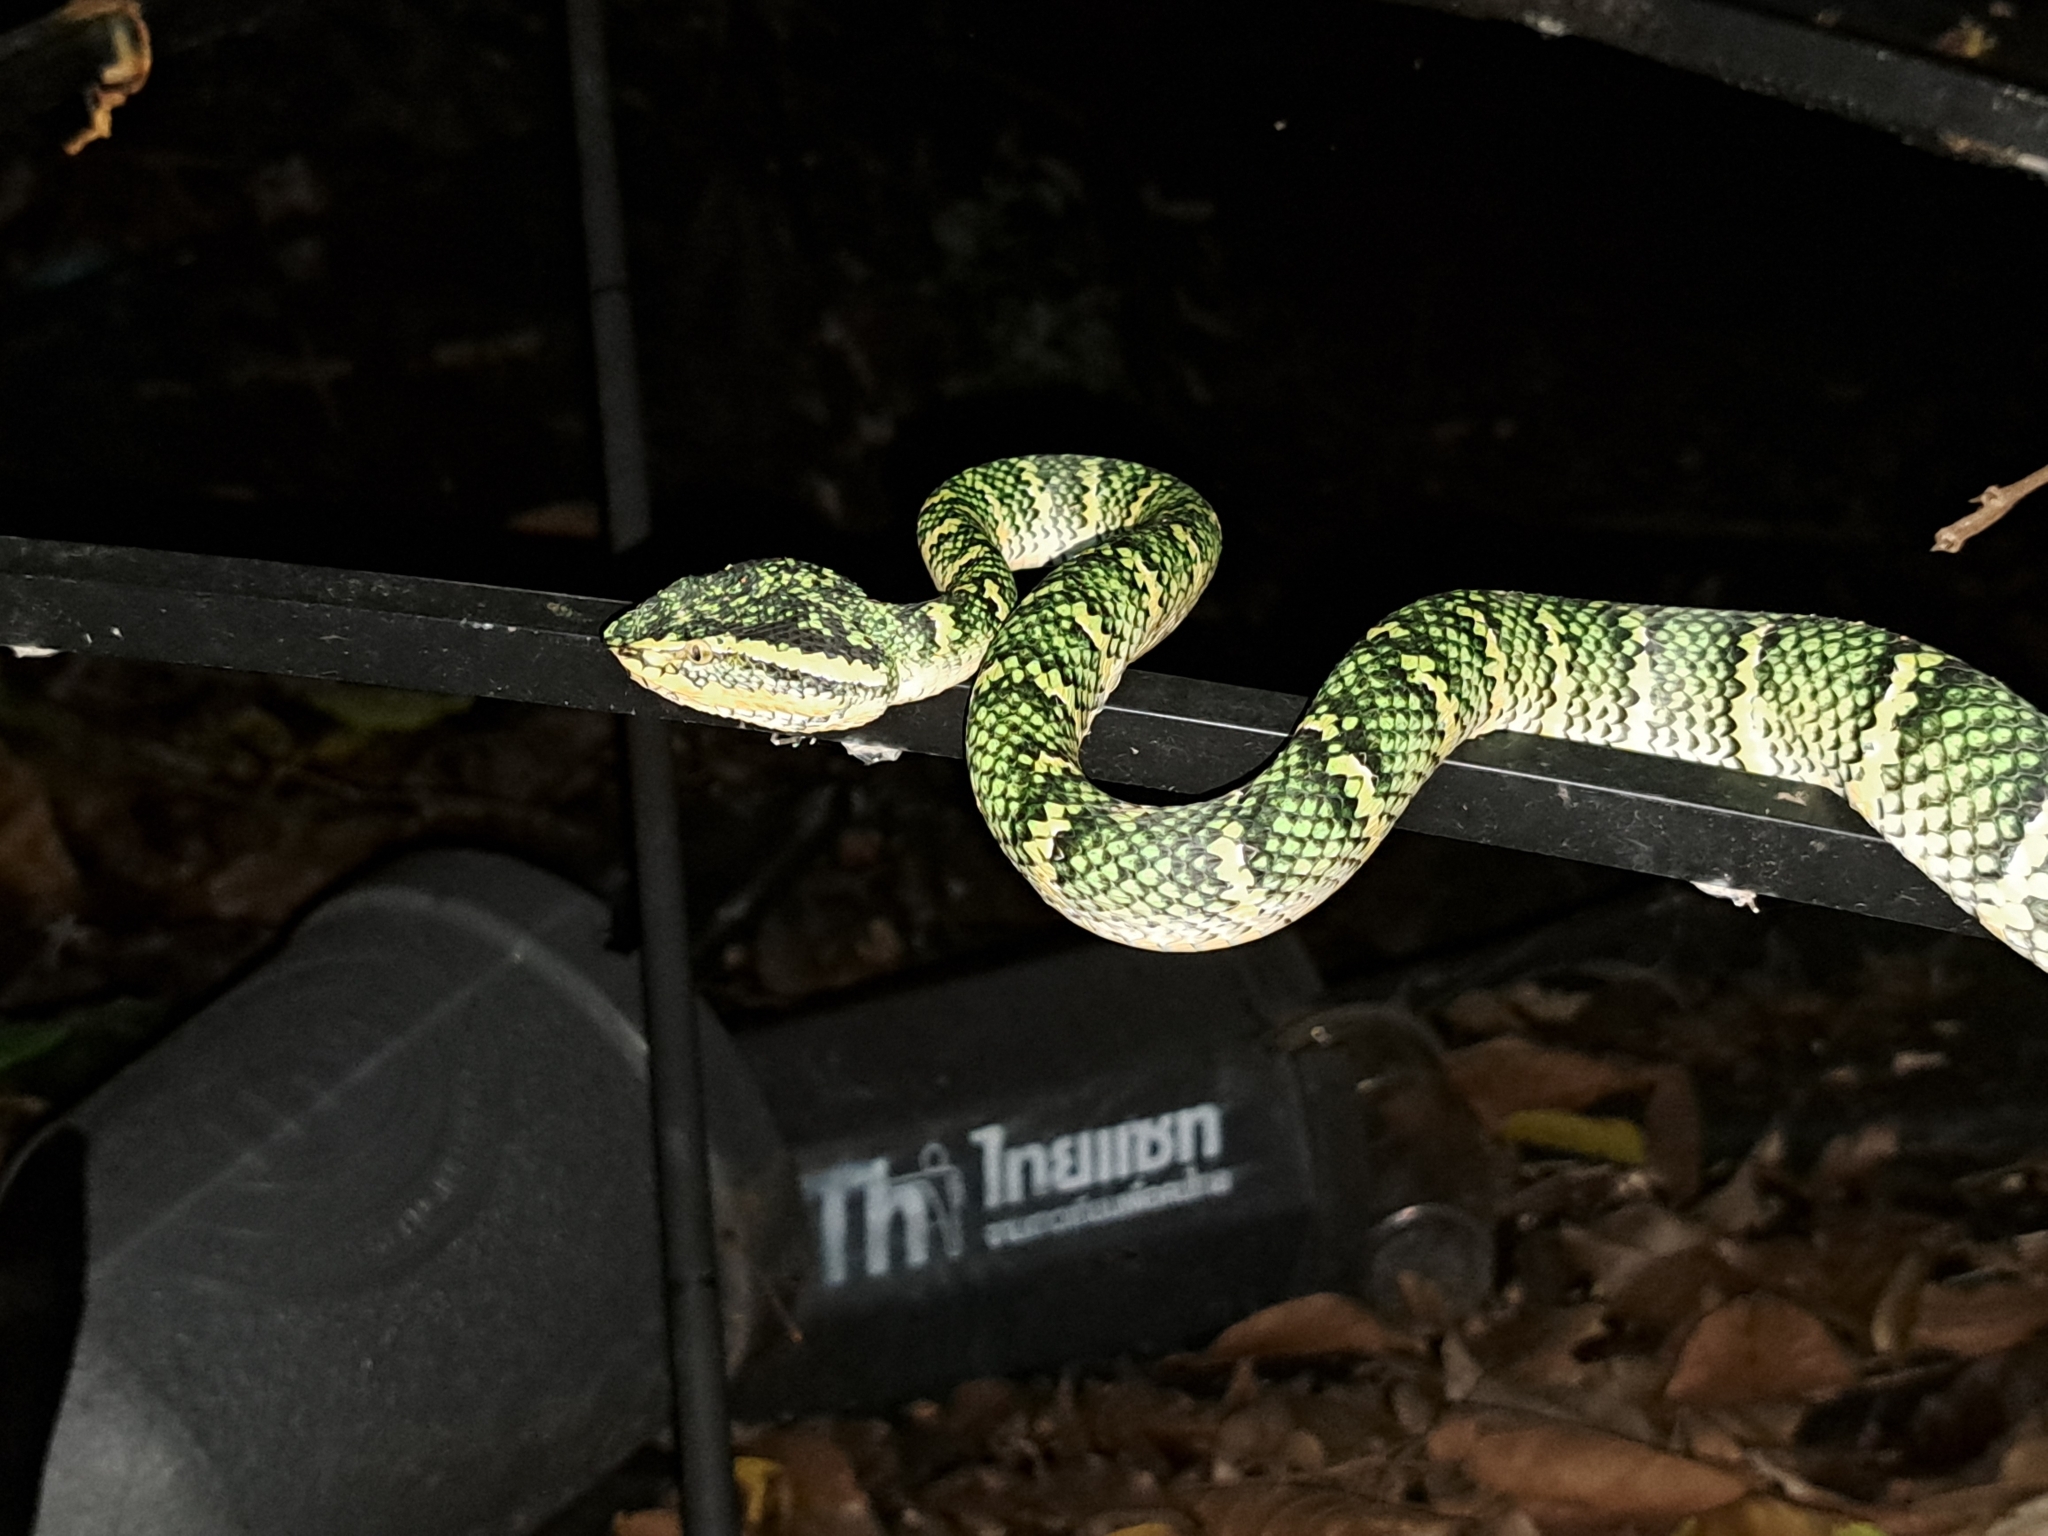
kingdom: Animalia
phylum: Chordata
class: Squamata
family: Viperidae
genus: Tropidolaemus
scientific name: Tropidolaemus wagleri
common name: Wagler's palm viper
